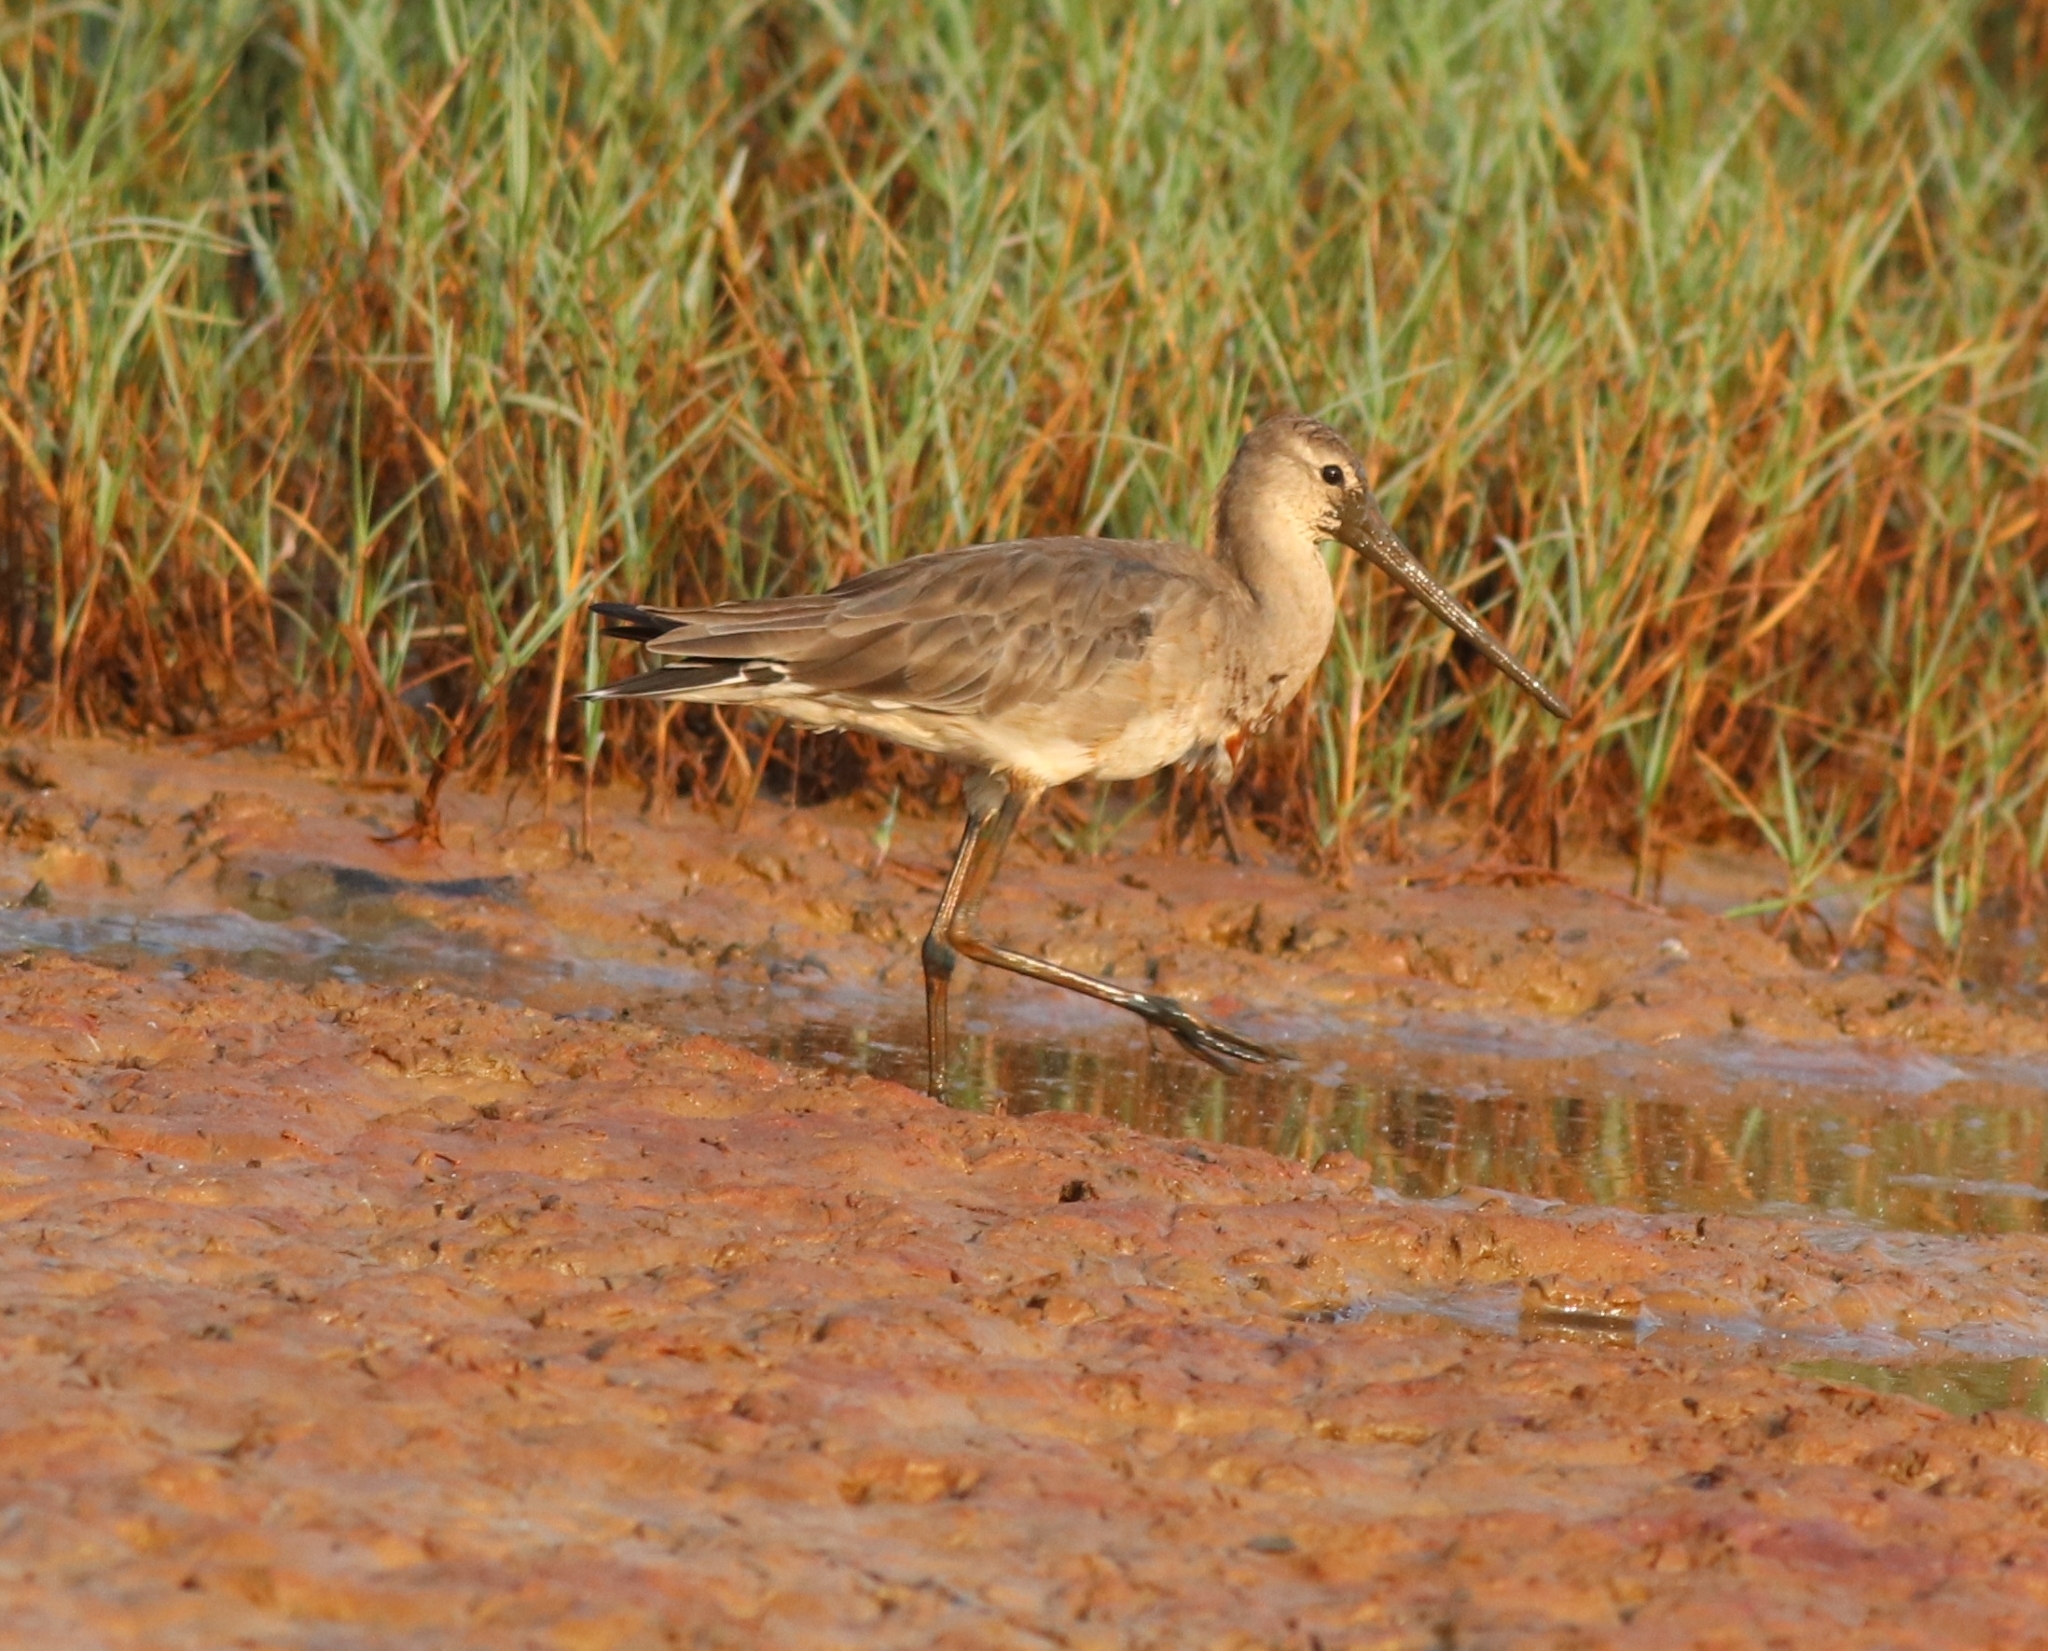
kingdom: Animalia
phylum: Chordata
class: Aves
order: Charadriiformes
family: Scolopacidae
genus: Limosa
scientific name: Limosa limosa
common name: Black-tailed godwit
